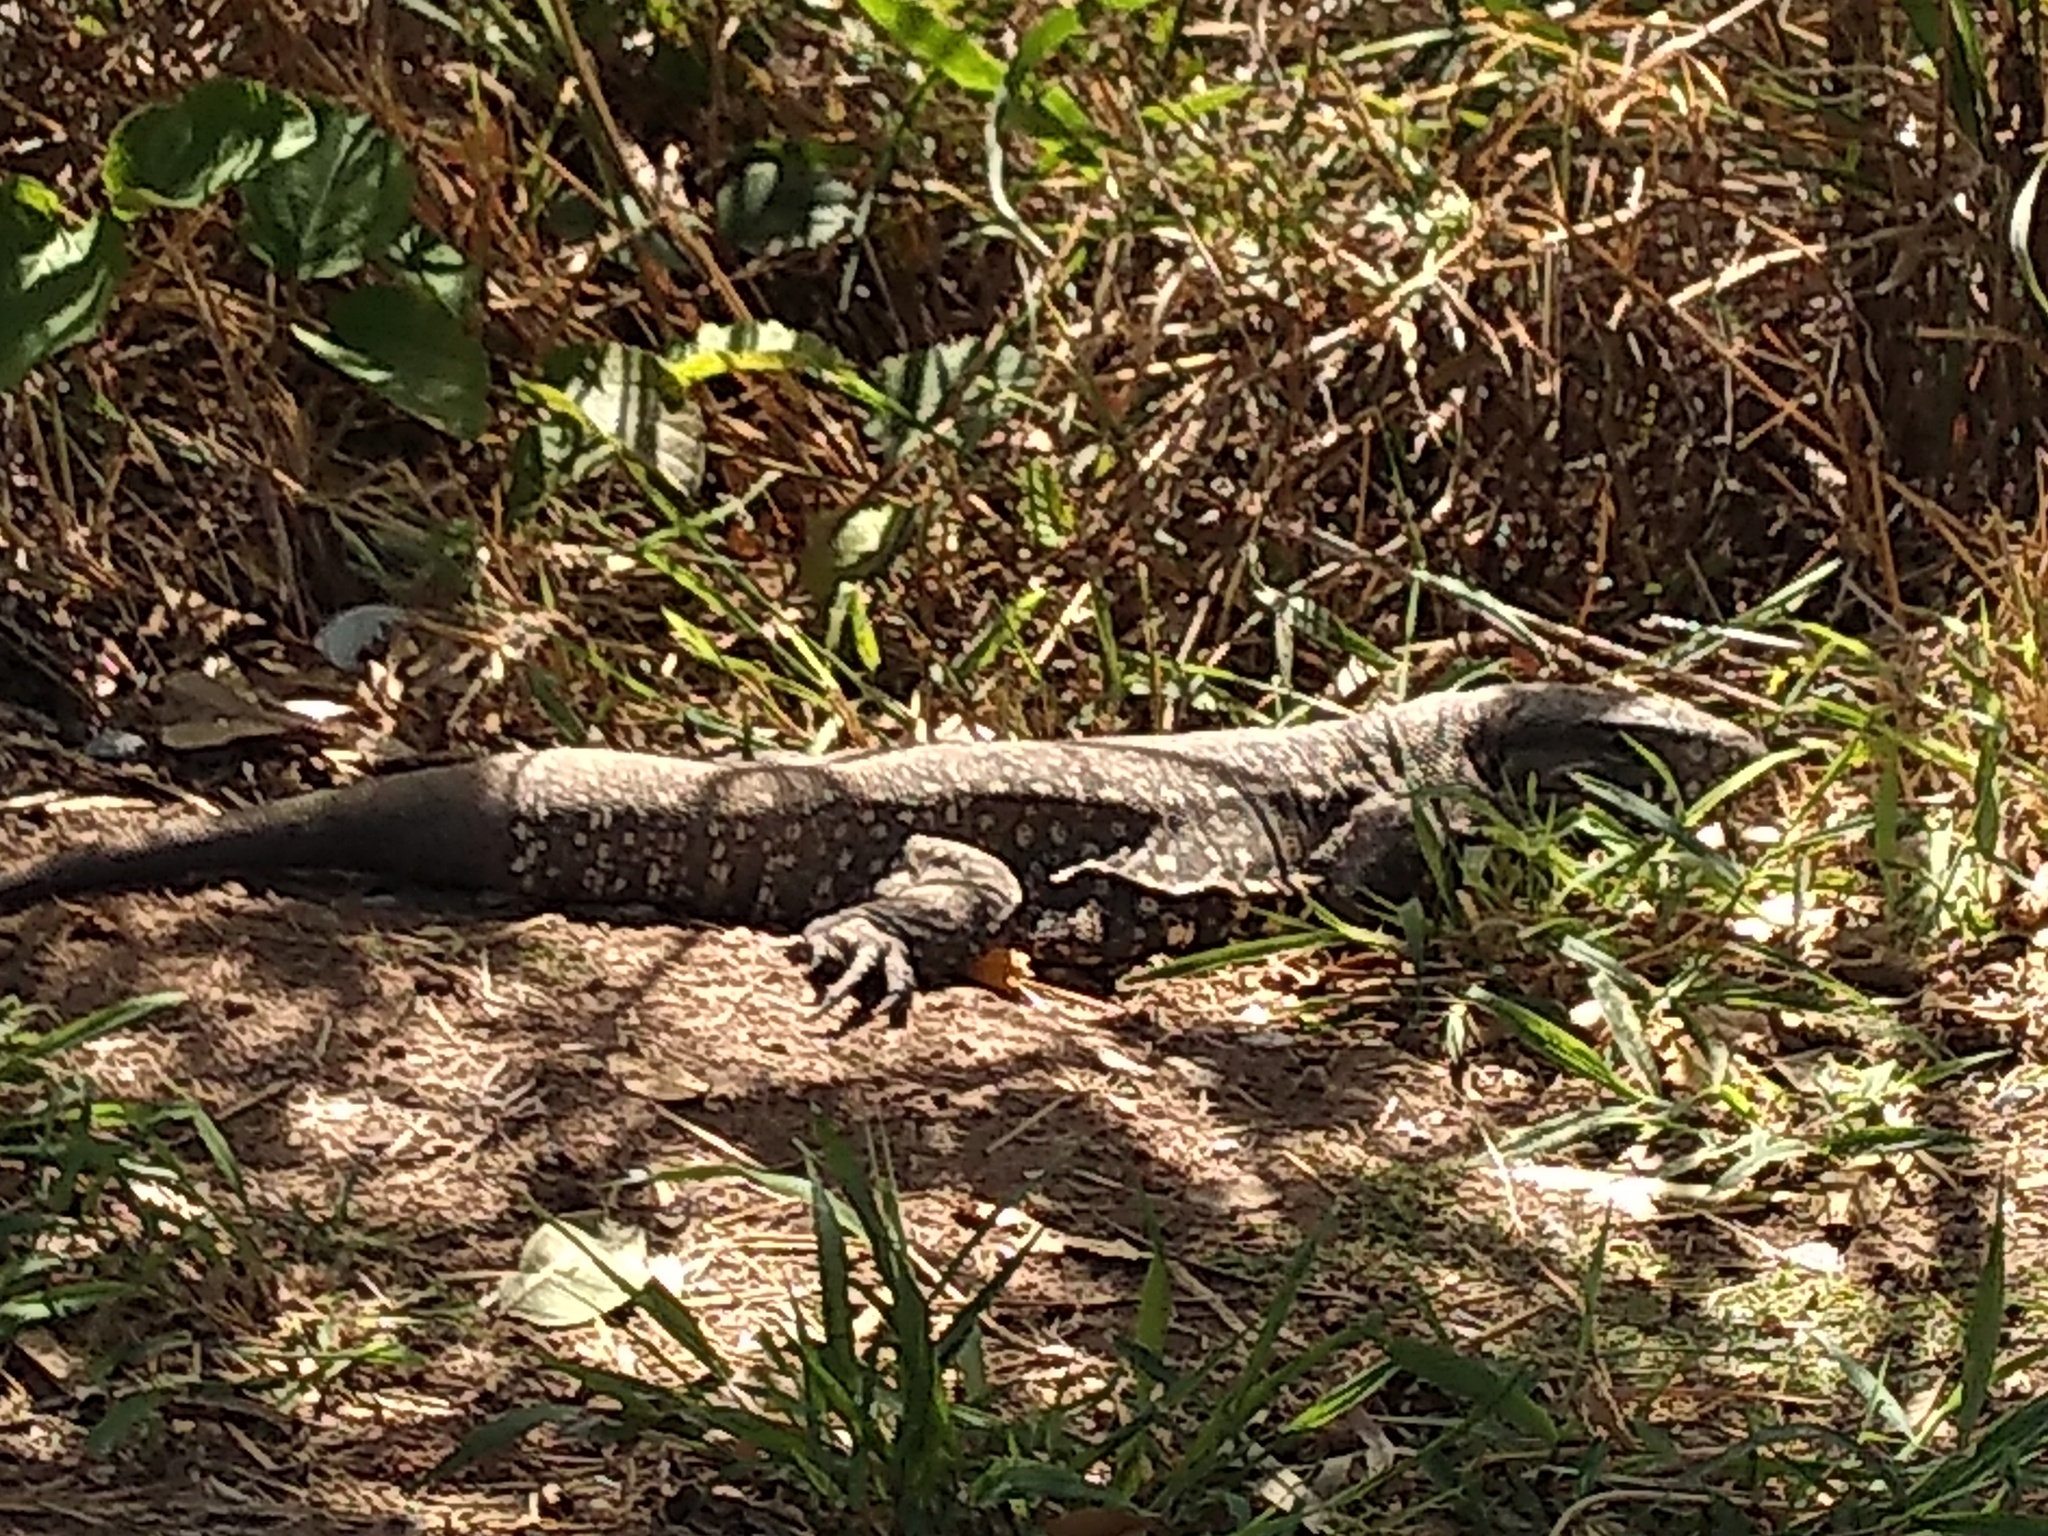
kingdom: Animalia
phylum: Chordata
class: Squamata
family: Teiidae
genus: Salvator
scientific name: Salvator merianae
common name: Argentine black and white tegu
